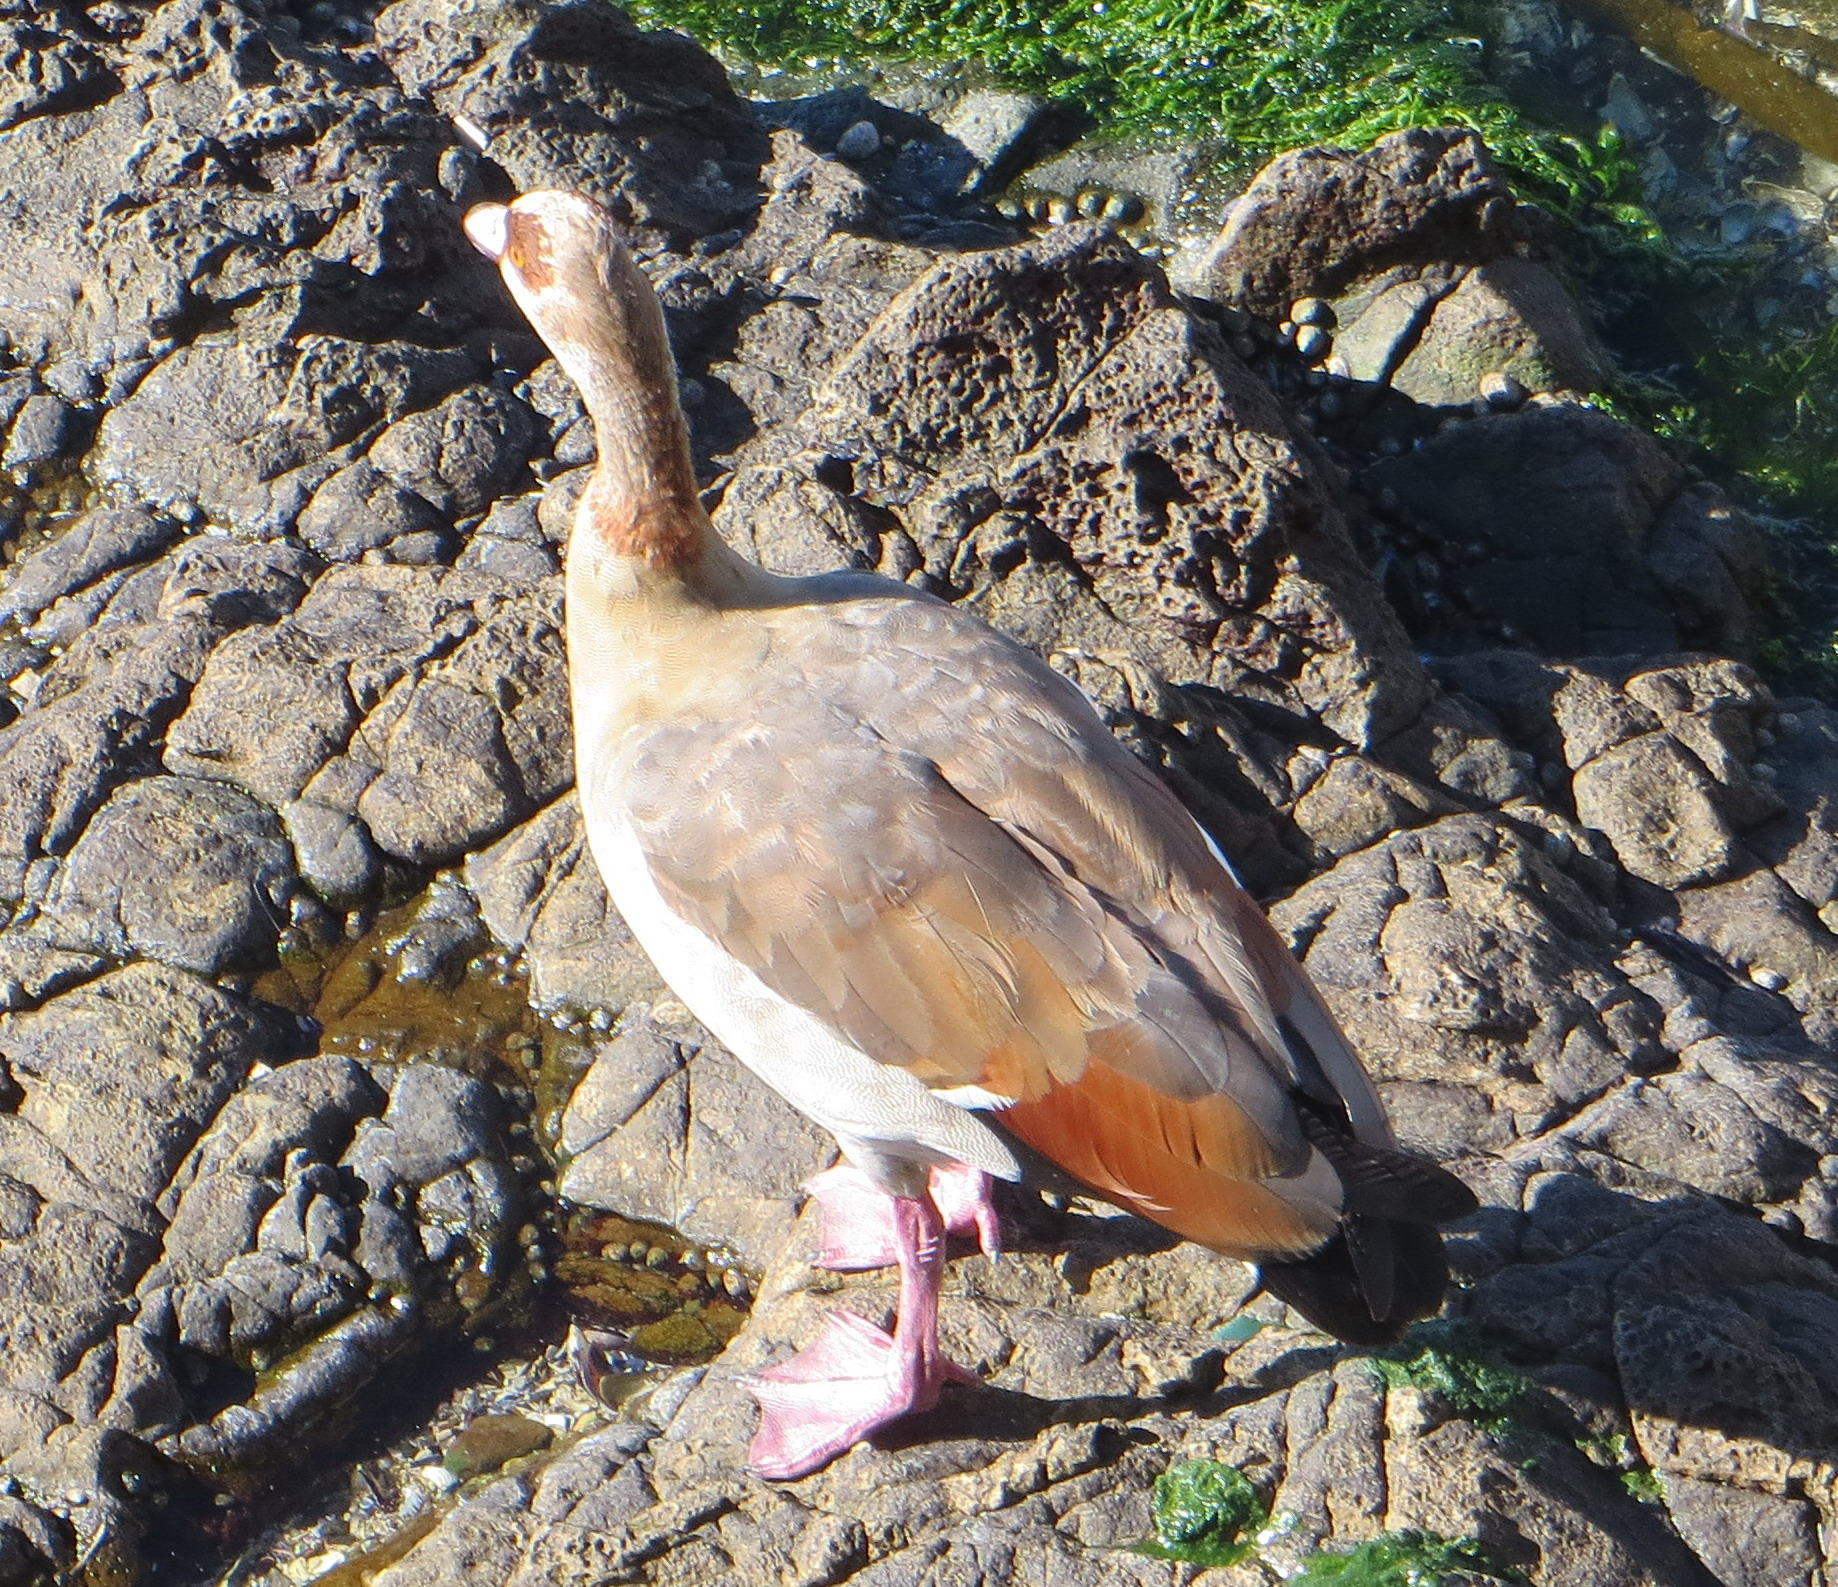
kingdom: Animalia
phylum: Chordata
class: Aves
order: Anseriformes
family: Anatidae
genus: Alopochen
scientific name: Alopochen aegyptiaca
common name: Egyptian goose
